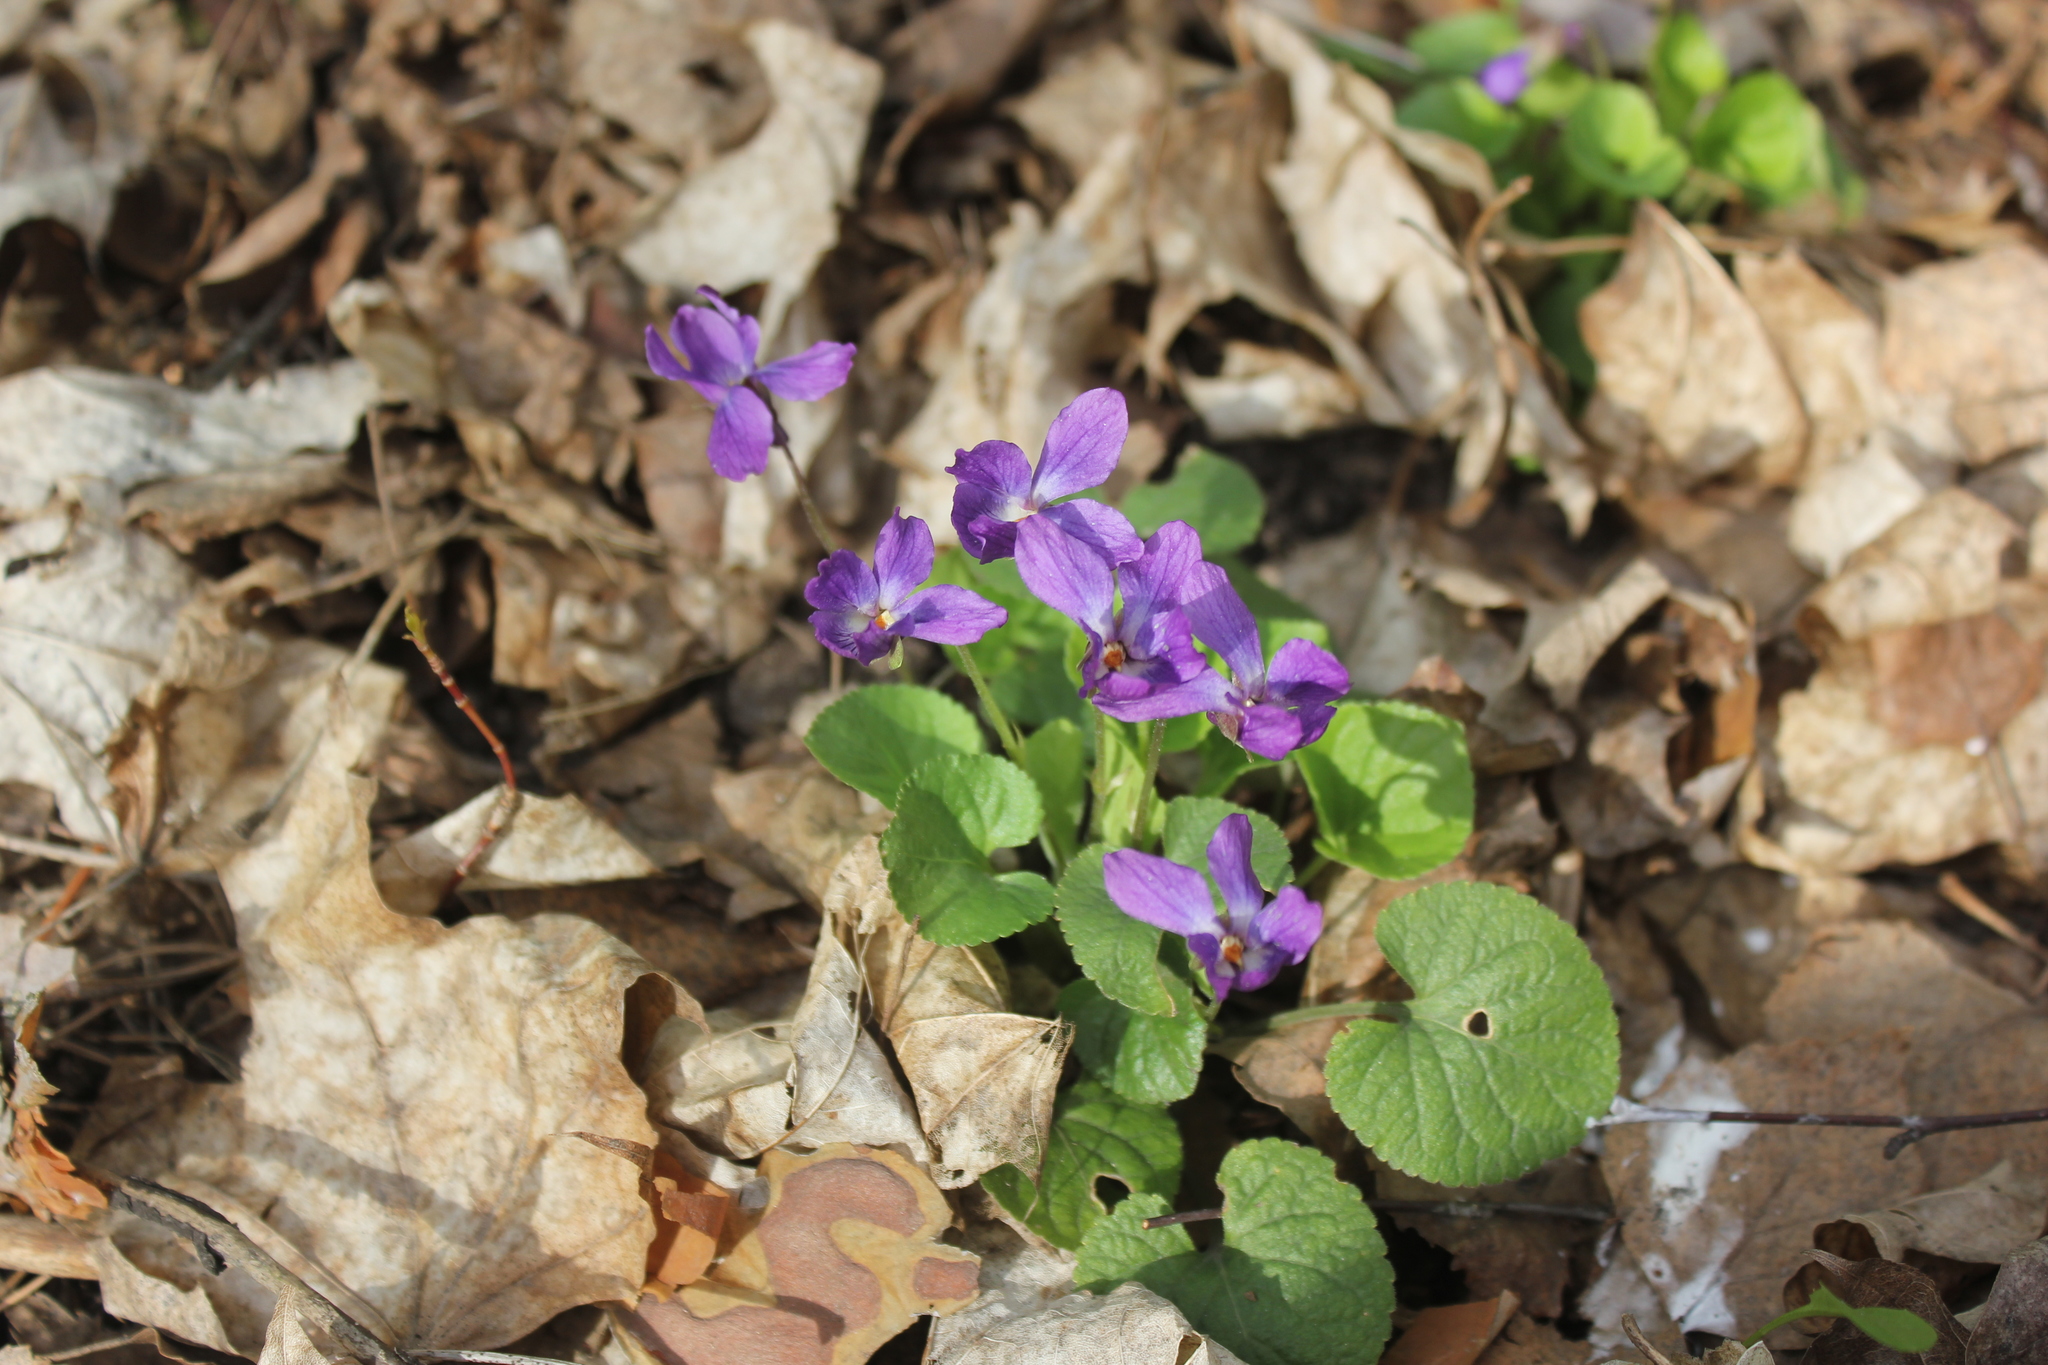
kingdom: Plantae
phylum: Tracheophyta
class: Magnoliopsida
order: Malpighiales
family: Violaceae
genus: Viola
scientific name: Viola odorata
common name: Sweet violet
